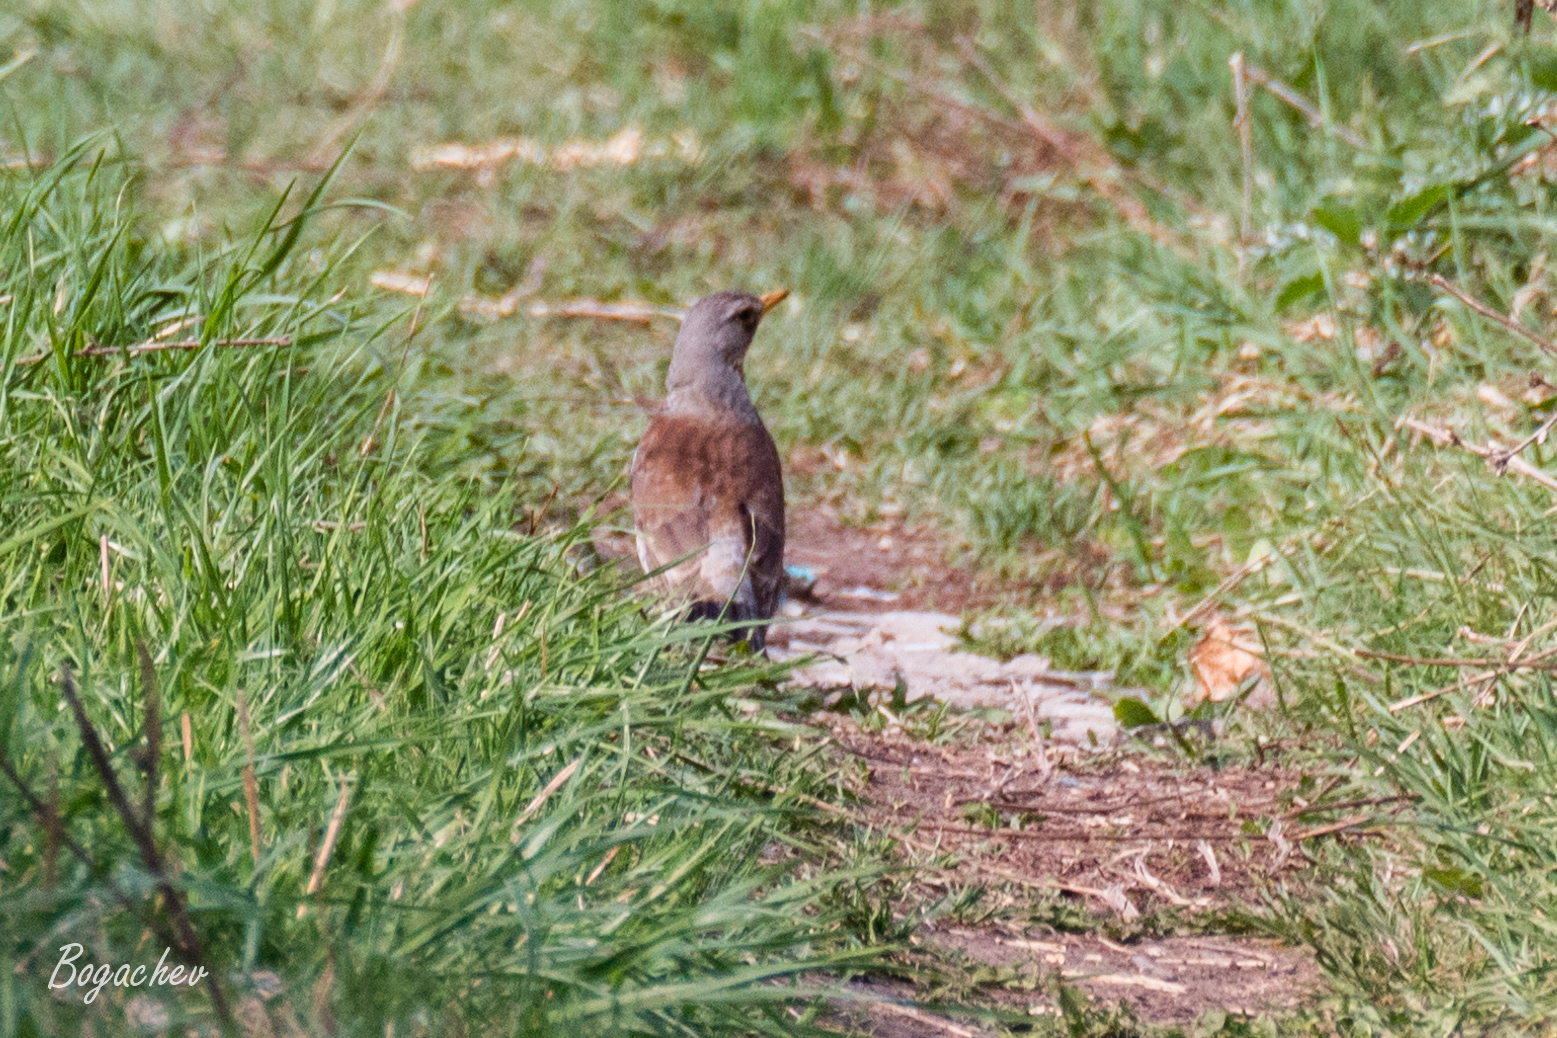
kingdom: Animalia
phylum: Chordata
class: Aves
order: Passeriformes
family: Turdidae
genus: Turdus
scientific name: Turdus pilaris
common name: Fieldfare
